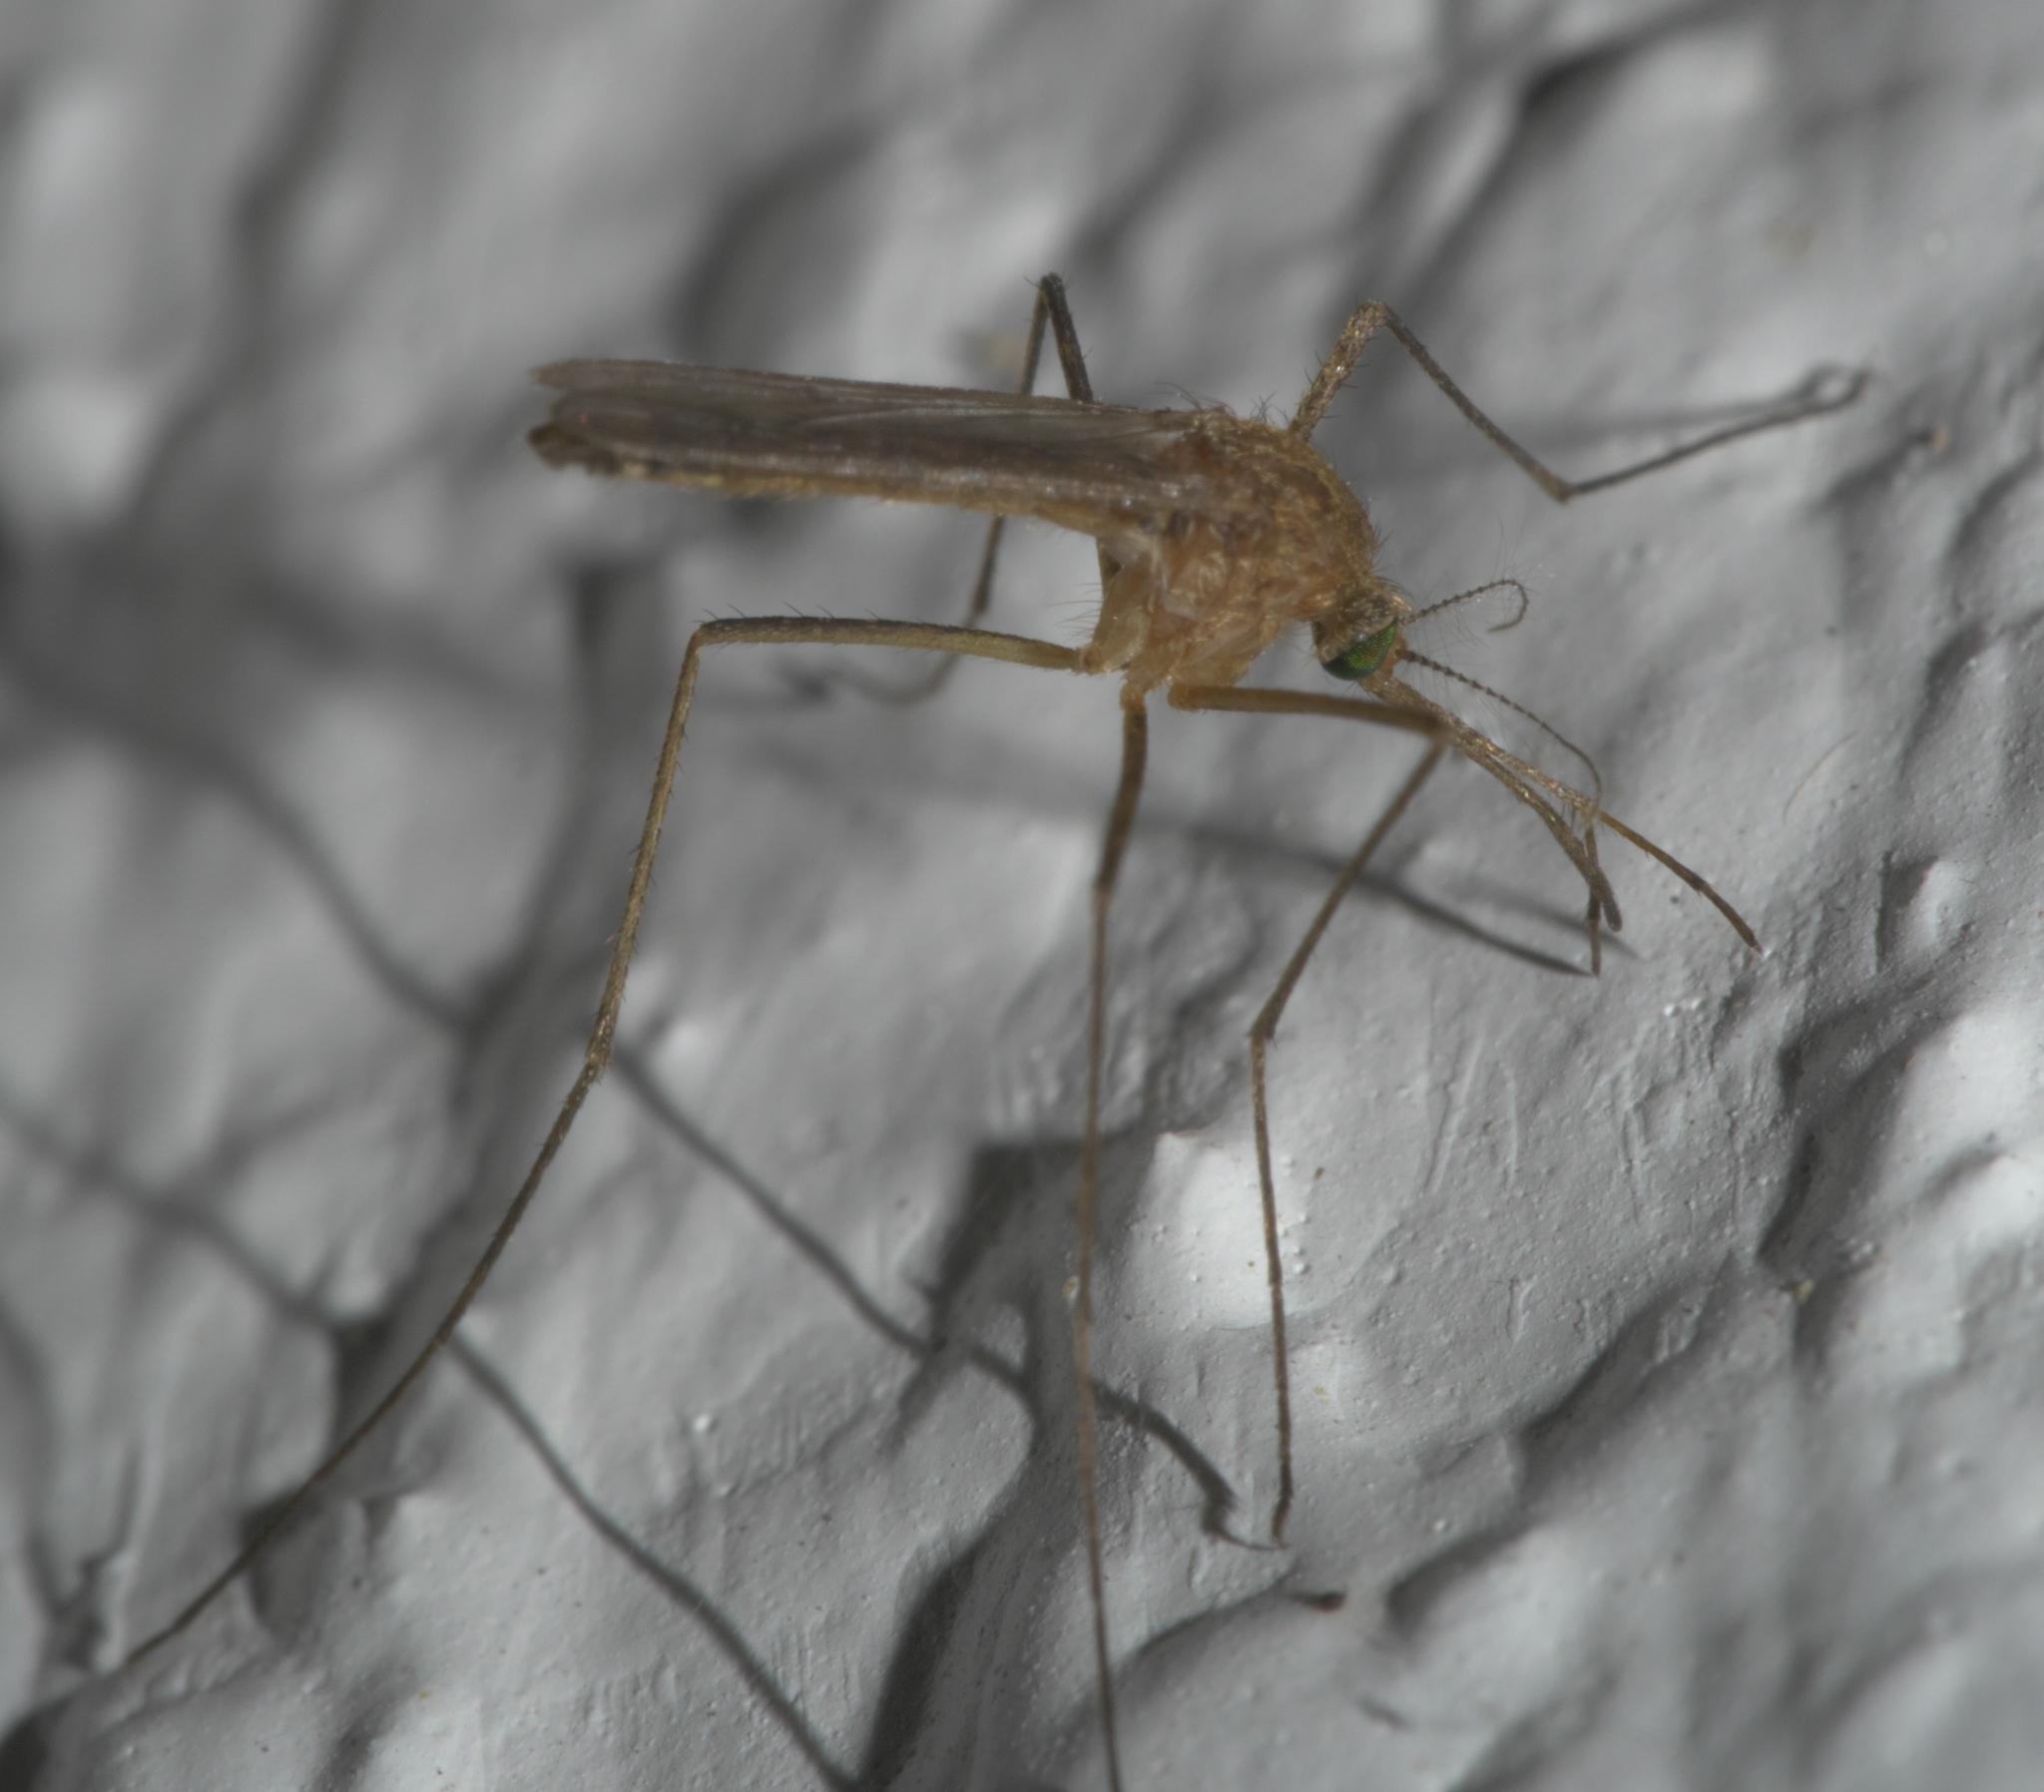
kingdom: Animalia
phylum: Arthropoda
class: Insecta
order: Diptera
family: Culicidae
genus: Culiseta
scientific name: Culiseta melanura
